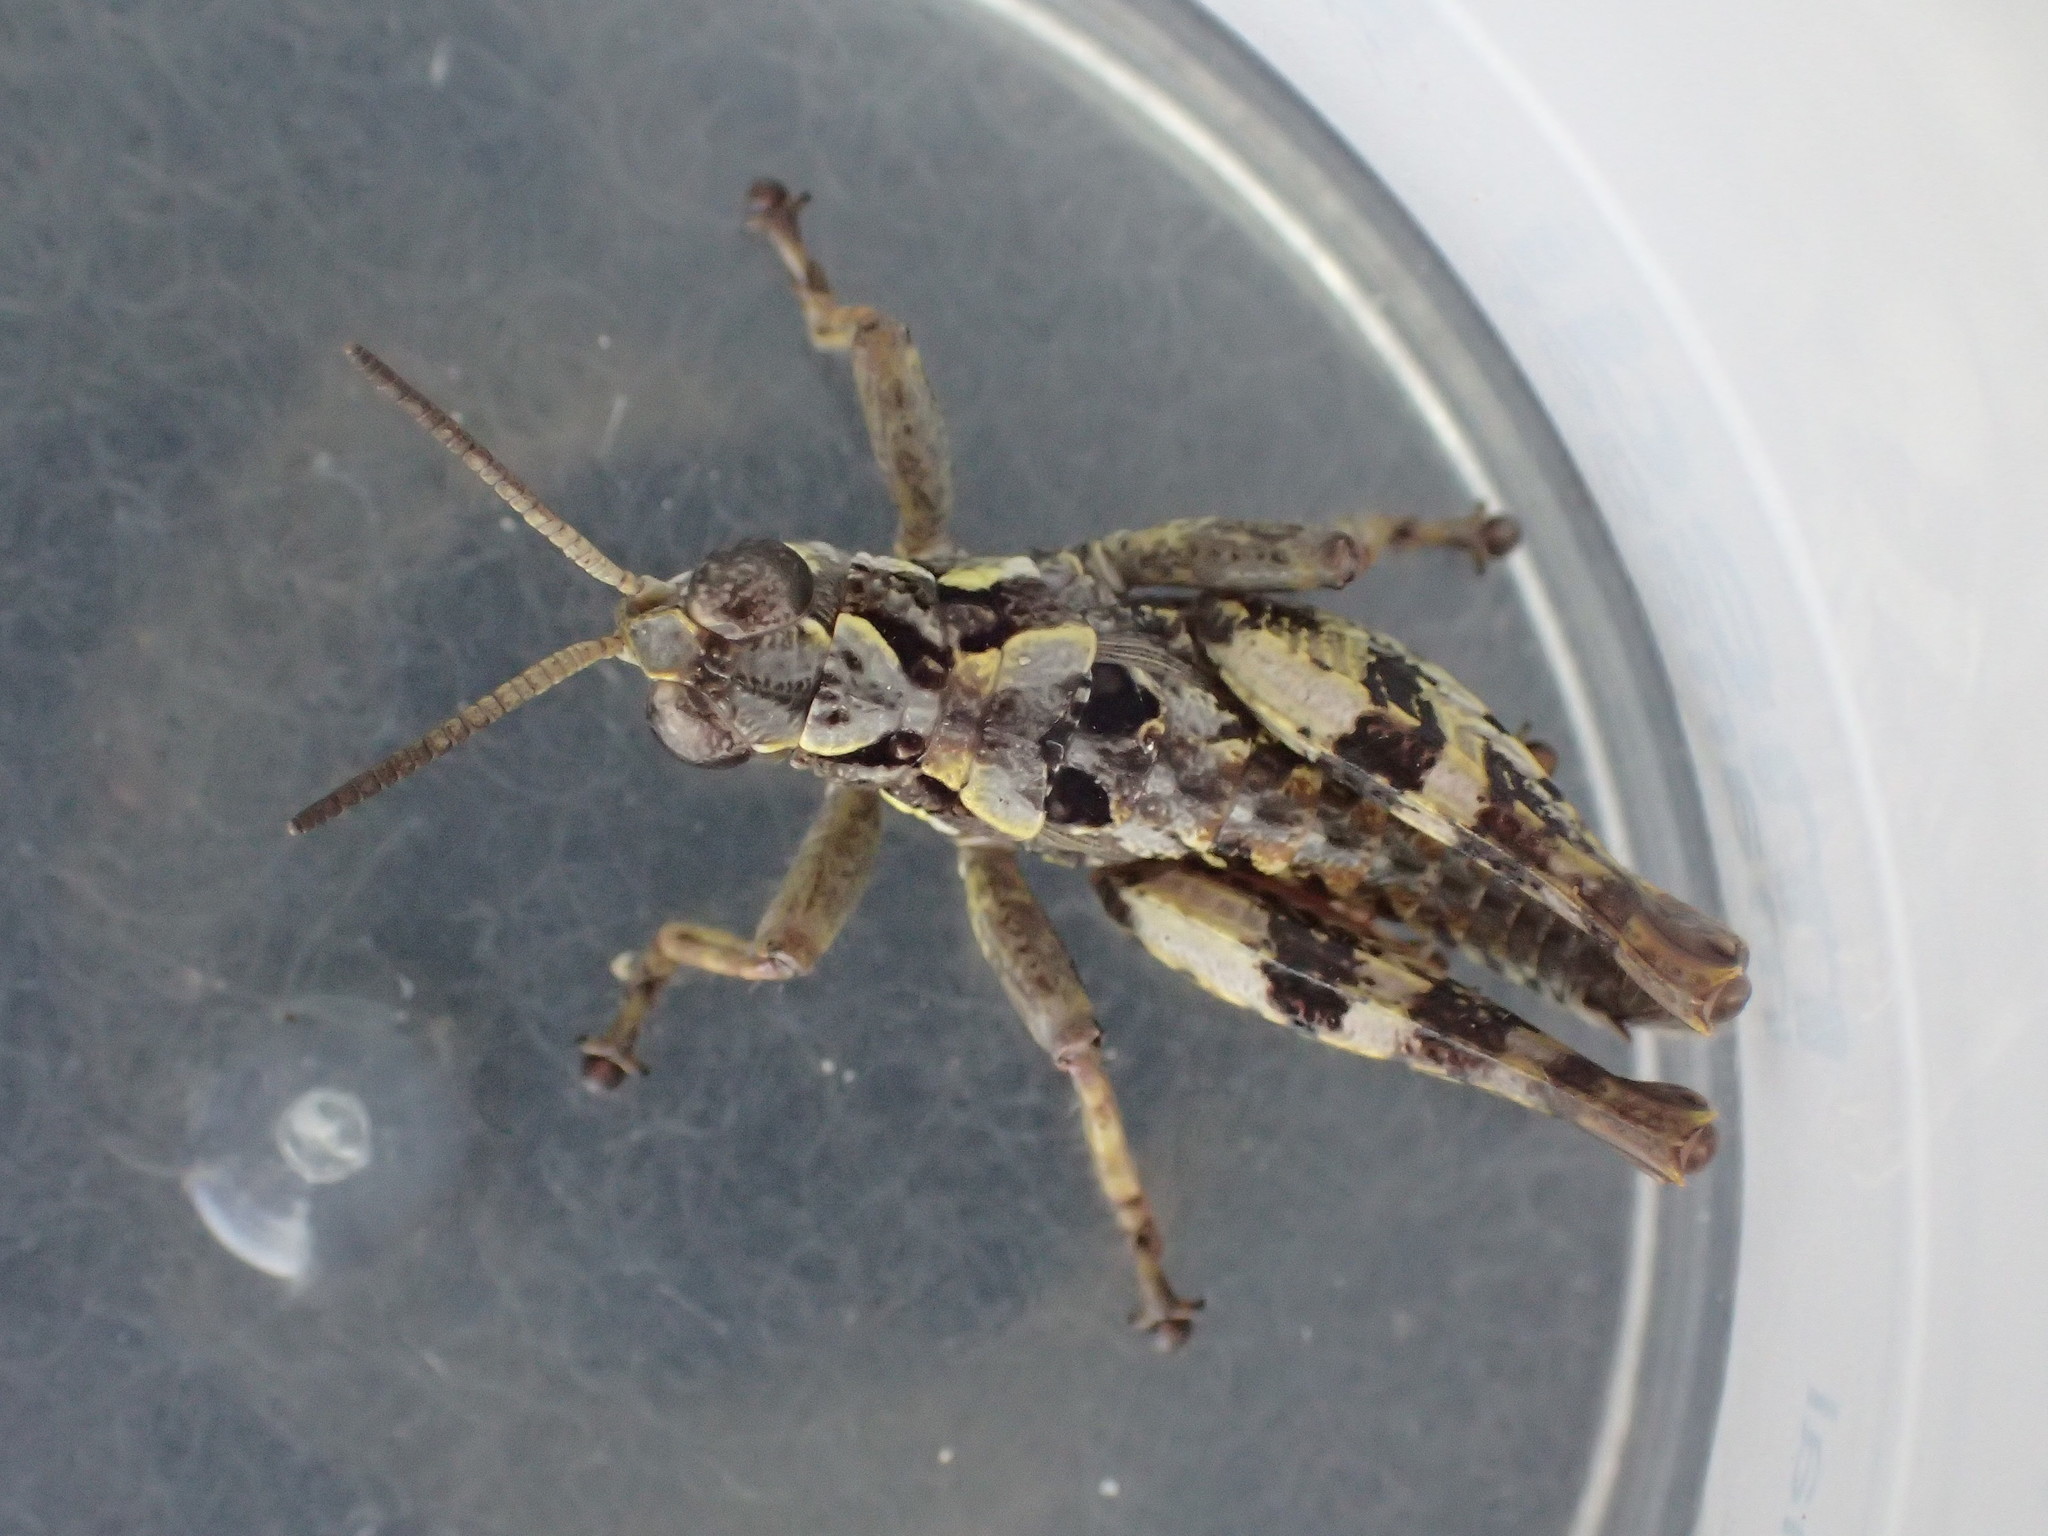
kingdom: Animalia
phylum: Arthropoda
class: Insecta
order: Orthoptera
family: Acrididae
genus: Tasmaniacris
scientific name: Tasmaniacris tasmaniensis
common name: Tasmanian grasshopper
